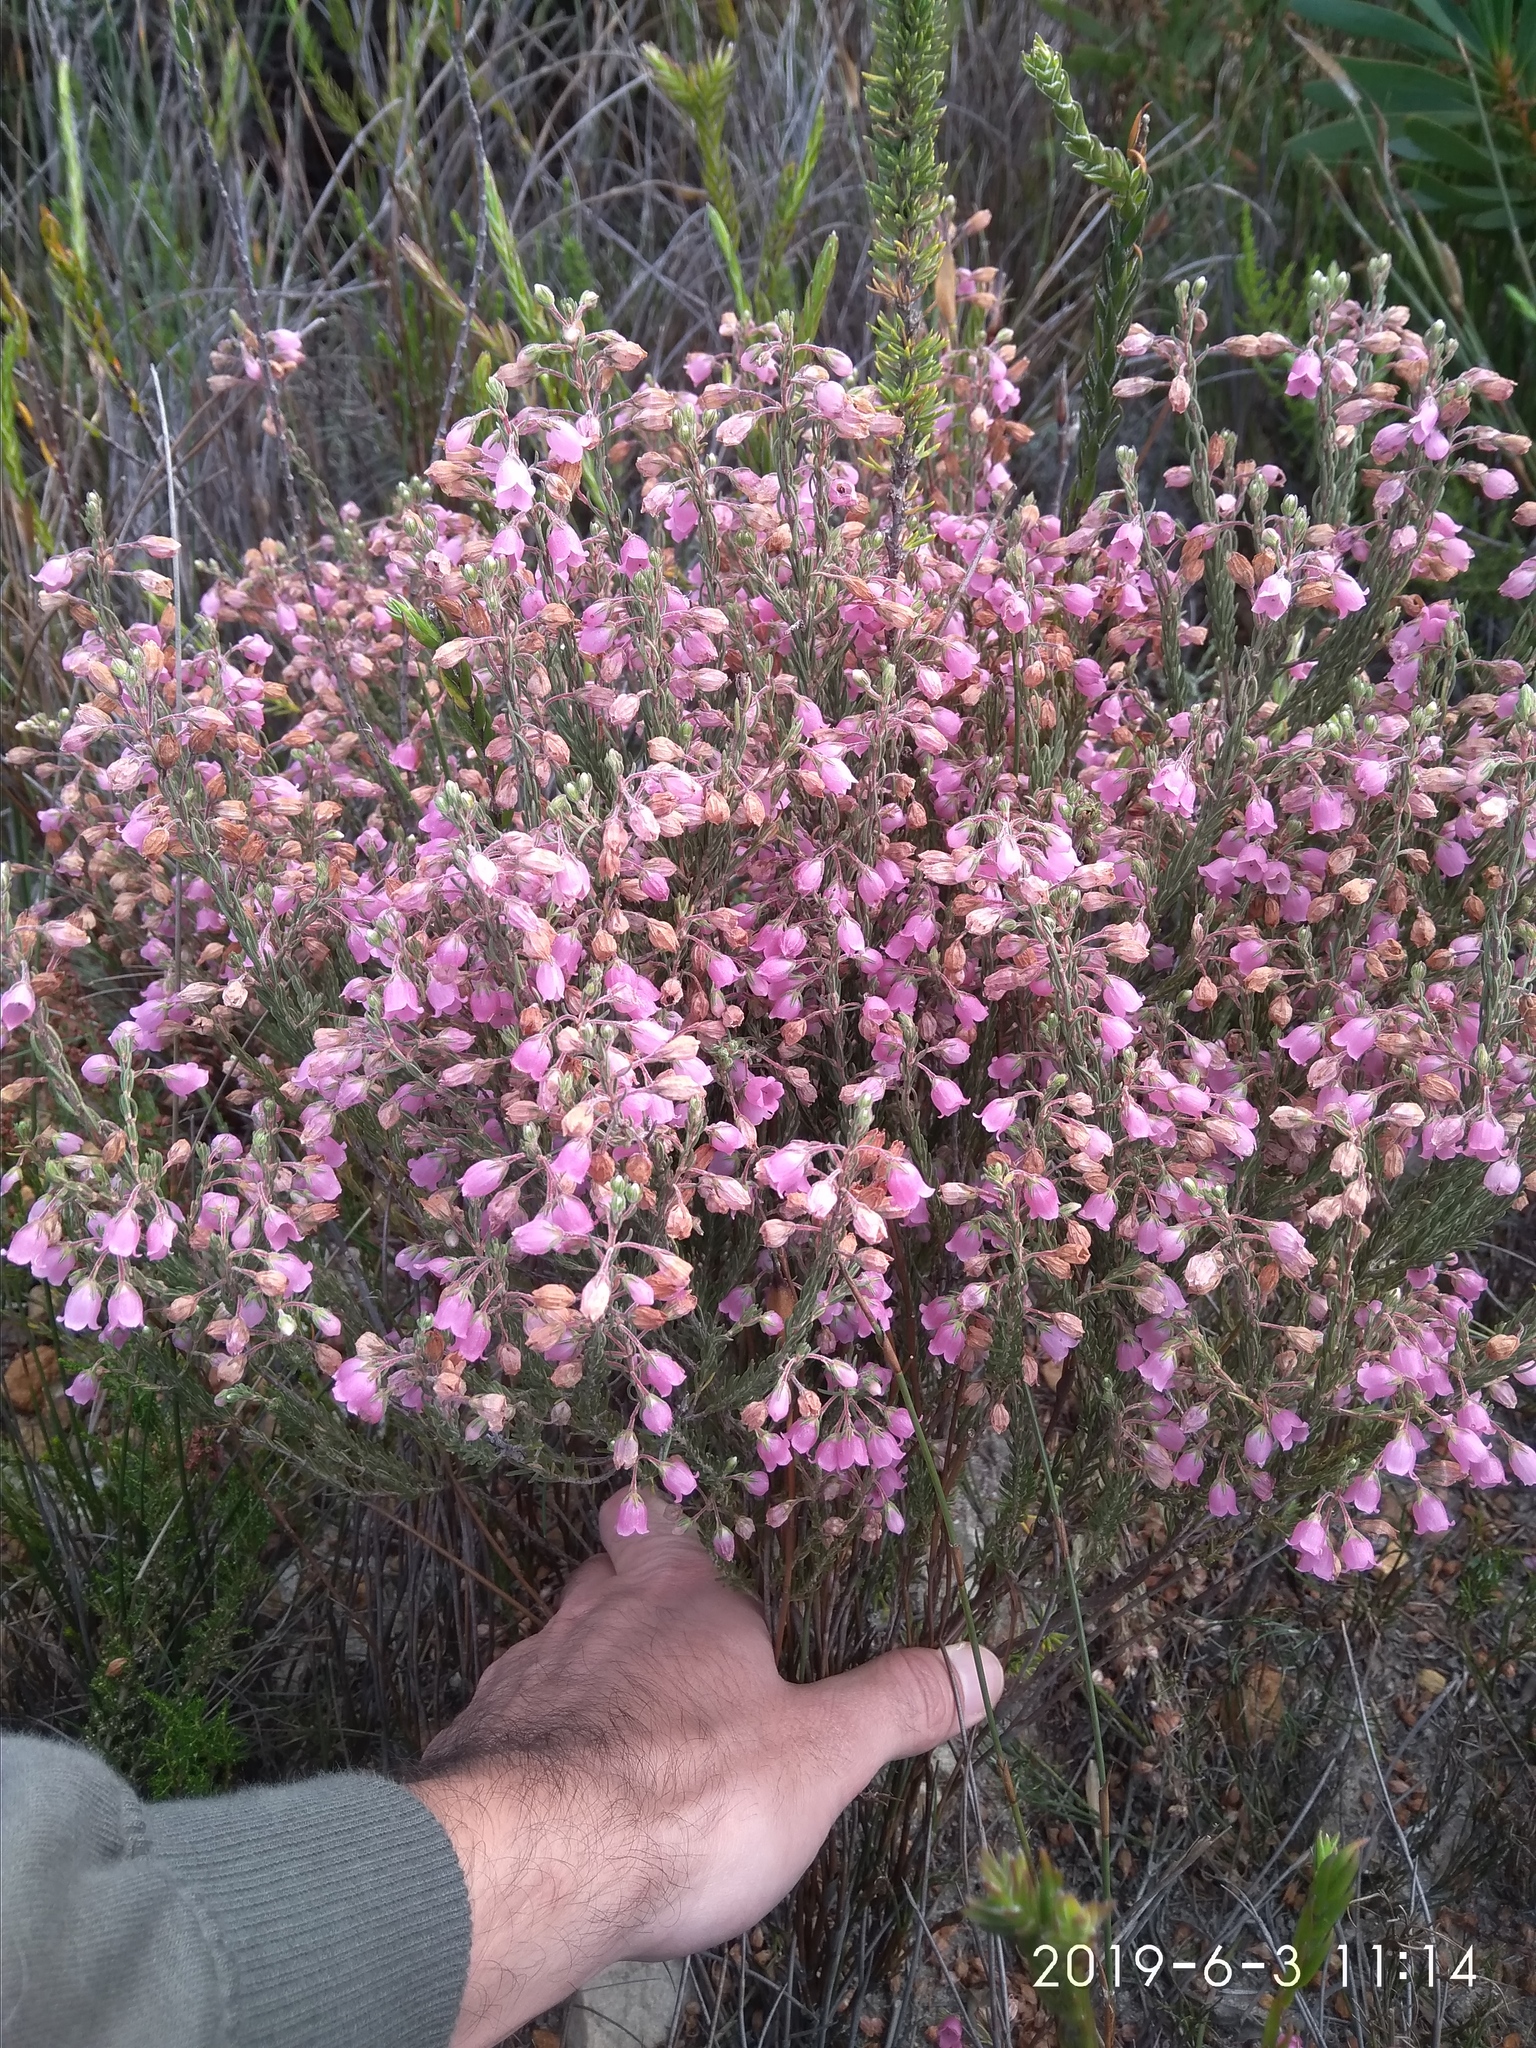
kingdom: Plantae
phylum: Tracheophyta
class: Magnoliopsida
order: Ericales
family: Ericaceae
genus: Erica
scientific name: Erica viscaria
